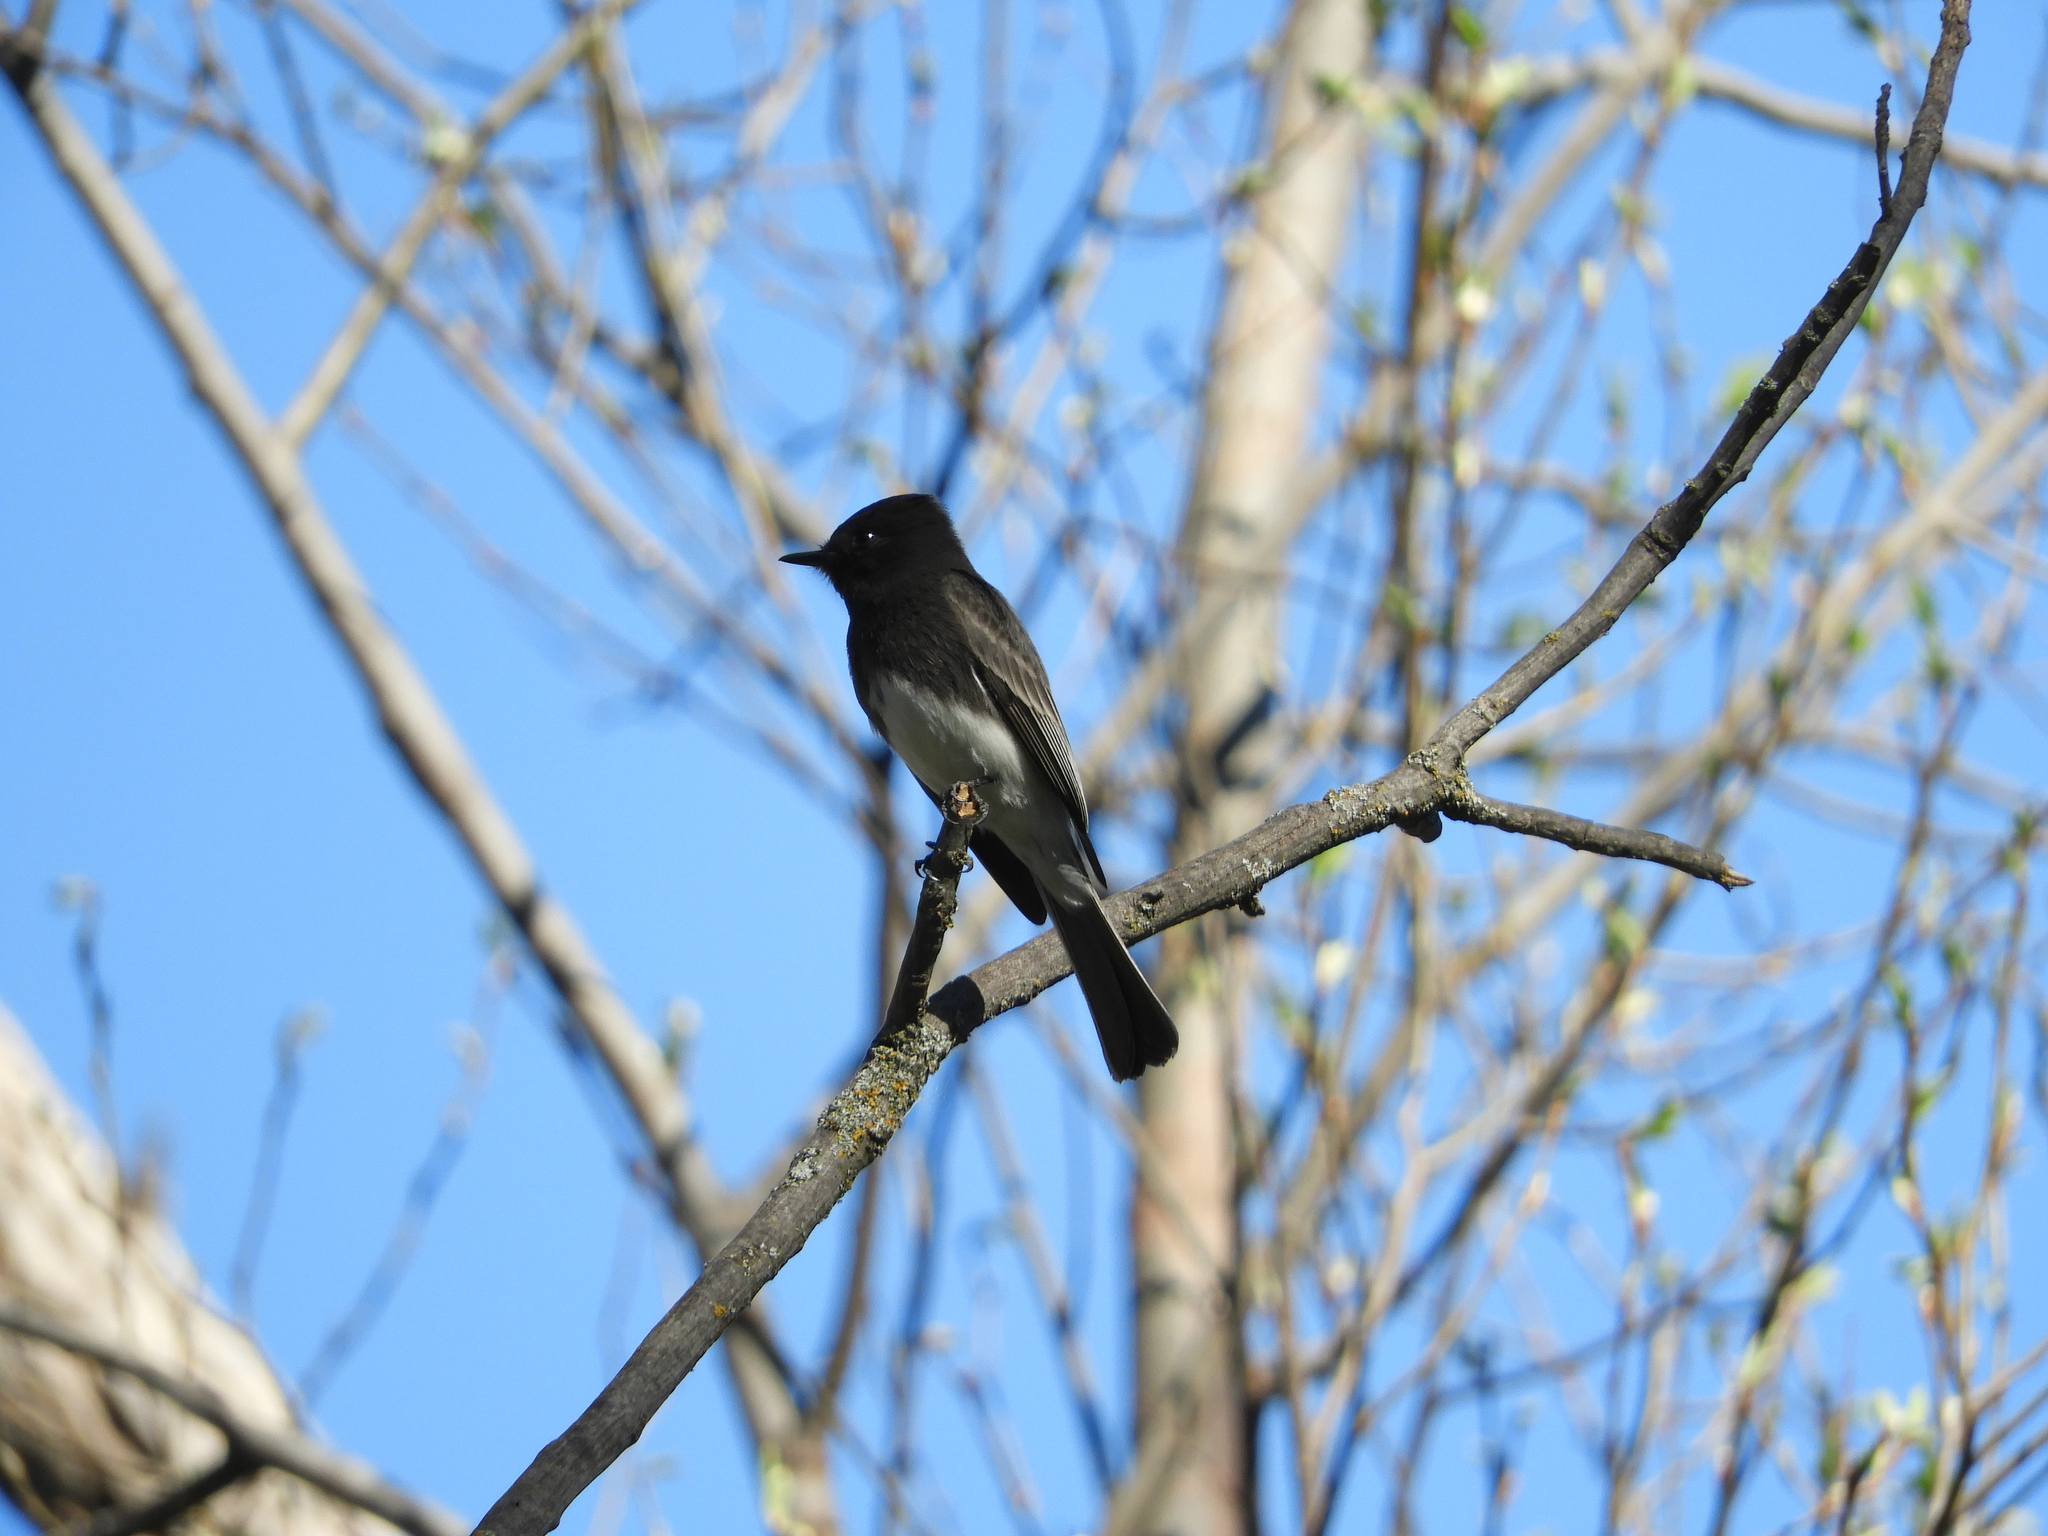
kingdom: Animalia
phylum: Chordata
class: Aves
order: Passeriformes
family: Tyrannidae
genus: Sayornis
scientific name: Sayornis nigricans
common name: Black phoebe
